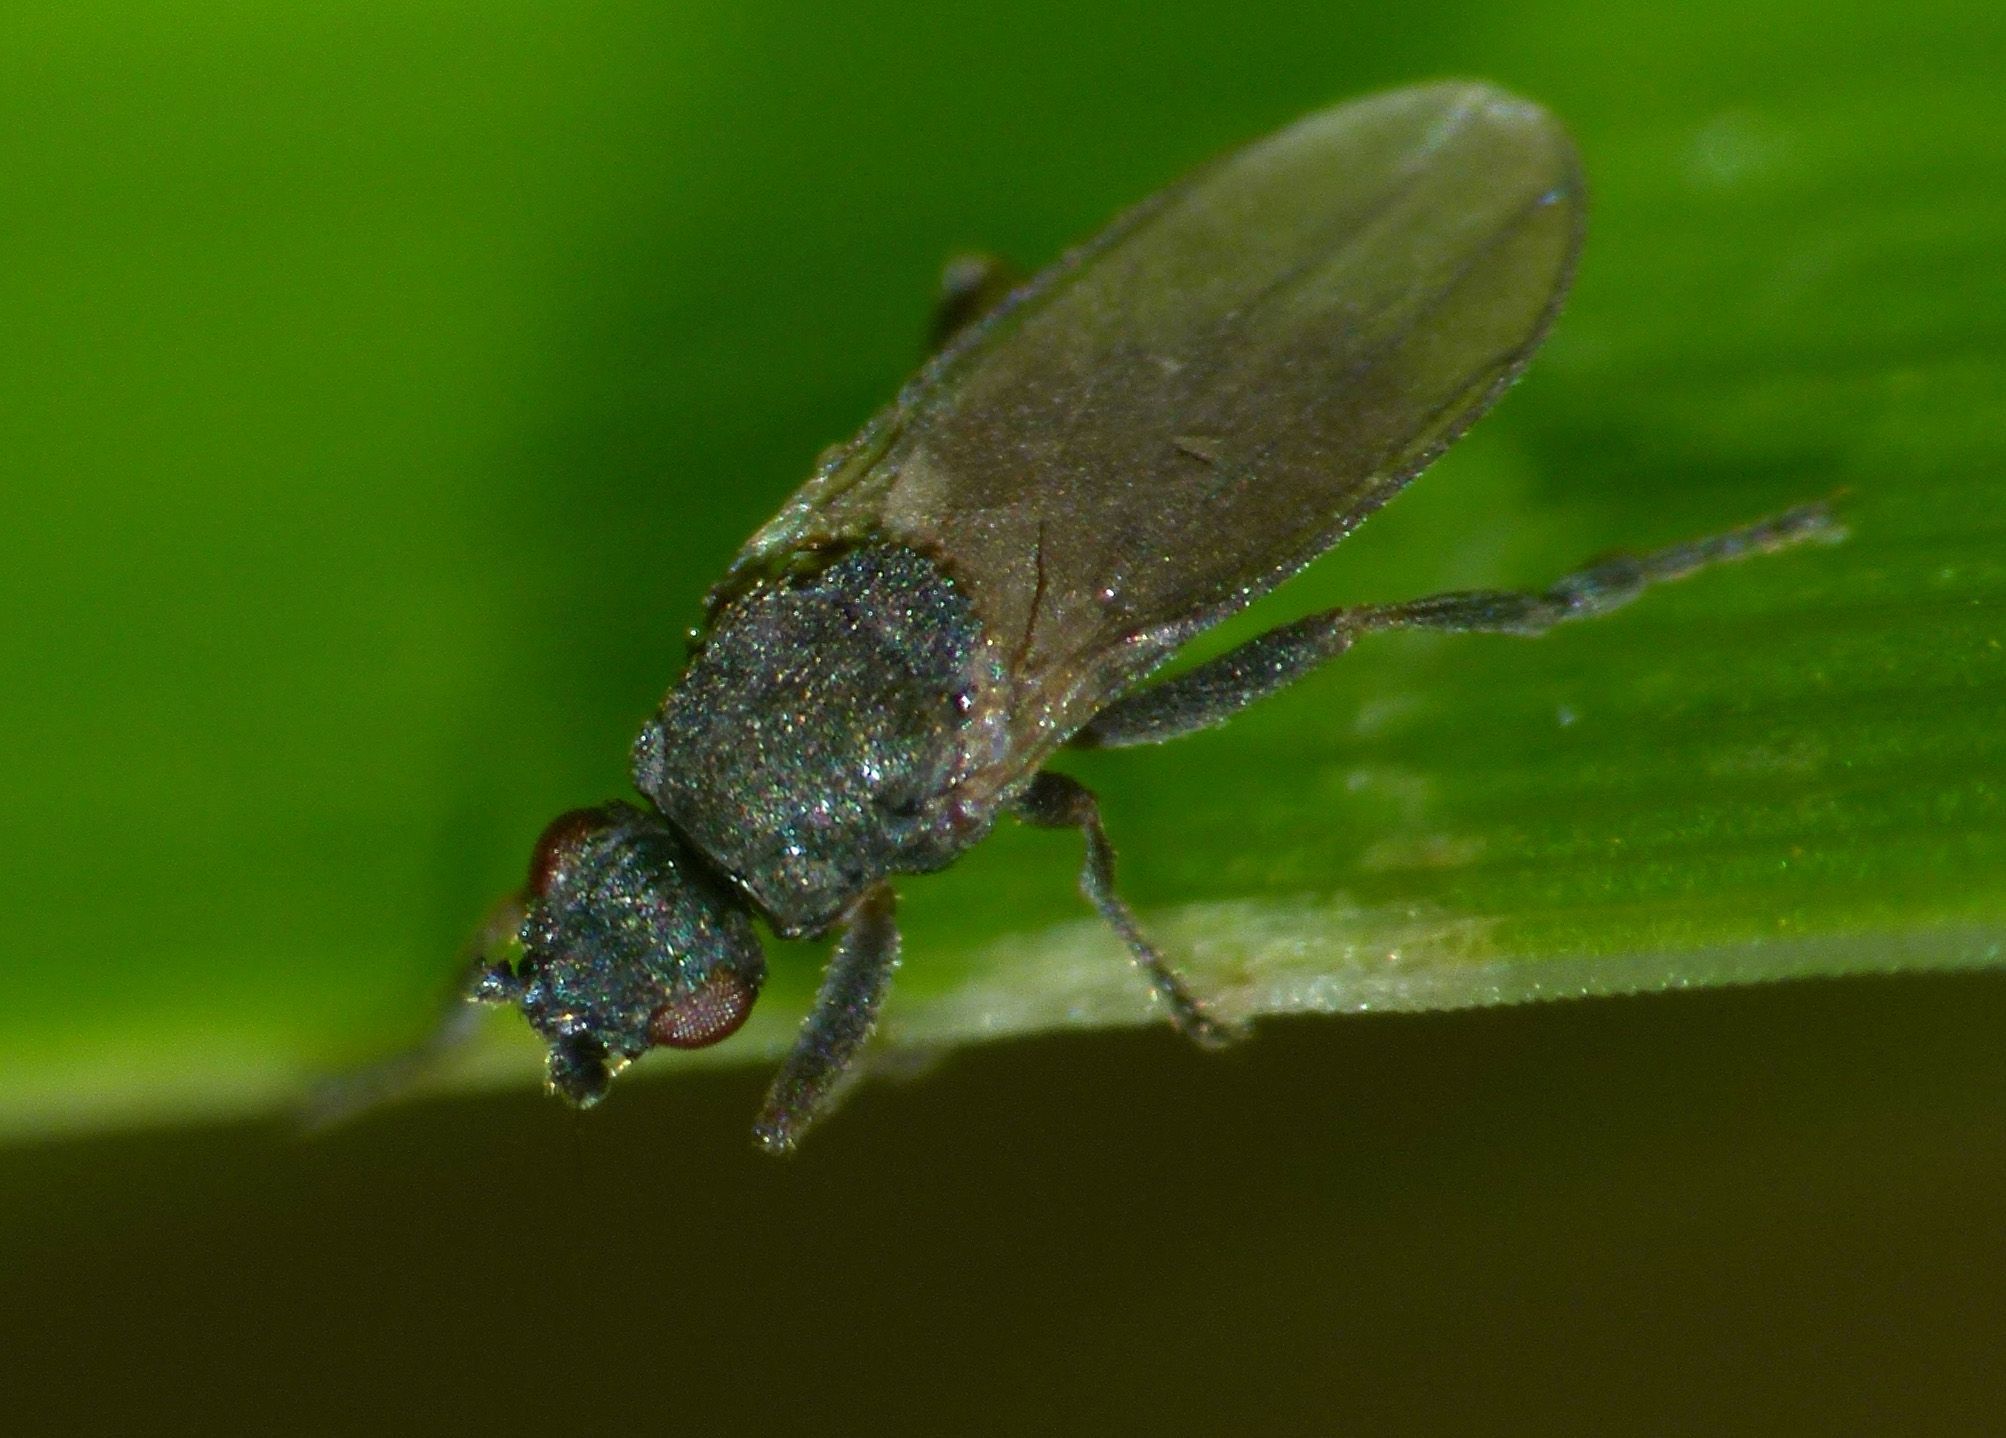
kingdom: Animalia
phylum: Arthropoda
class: Insecta
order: Diptera
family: Sphaeroceridae
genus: Ischiolepta
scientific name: Ischiolepta pusilla
